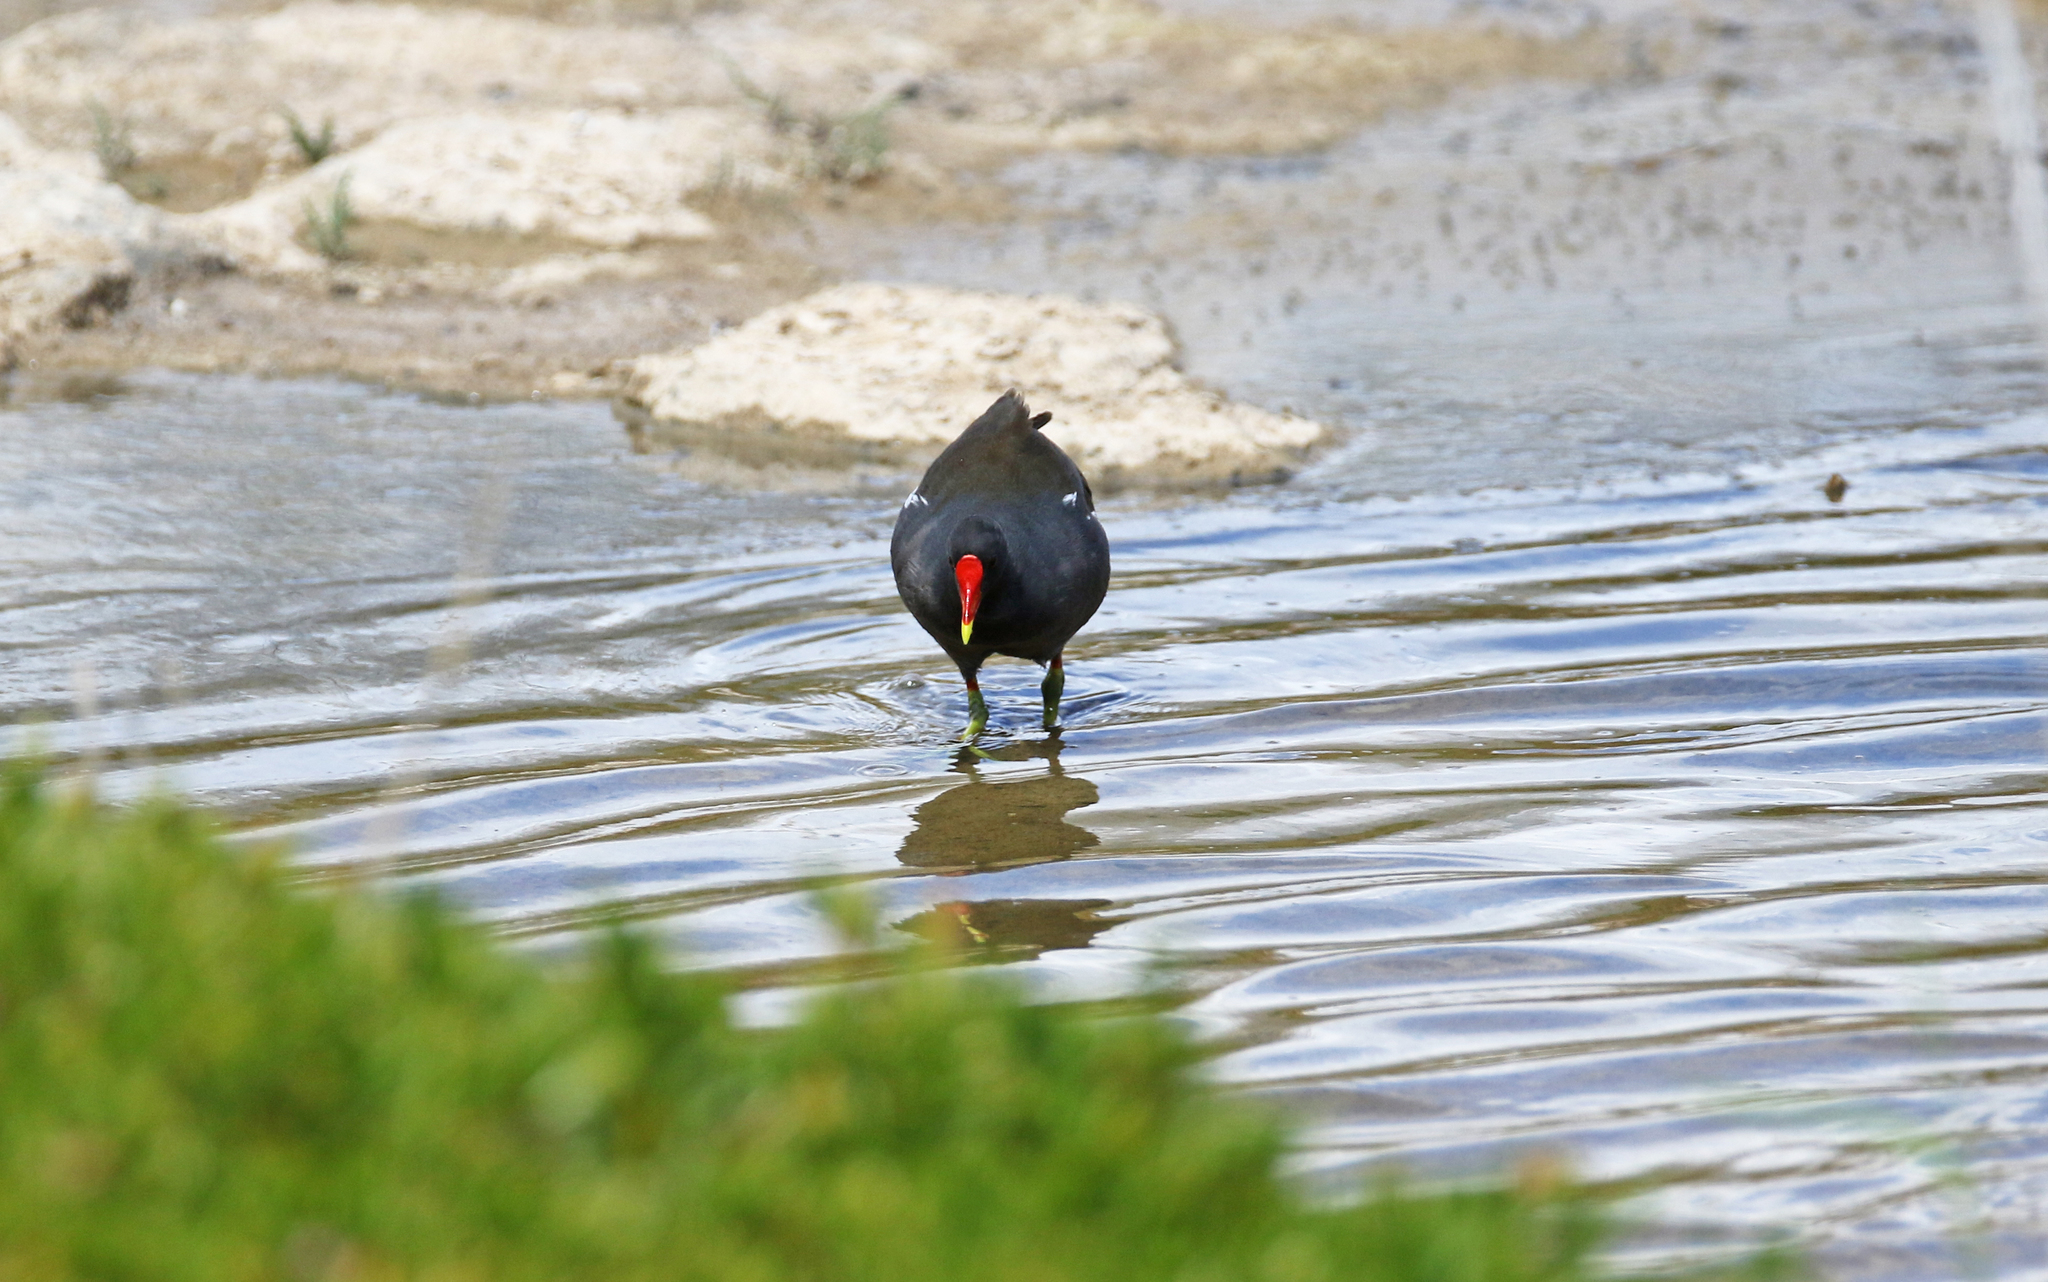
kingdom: Animalia
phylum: Chordata
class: Aves
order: Gruiformes
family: Rallidae
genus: Gallinula
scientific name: Gallinula chloropus
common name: Common moorhen
